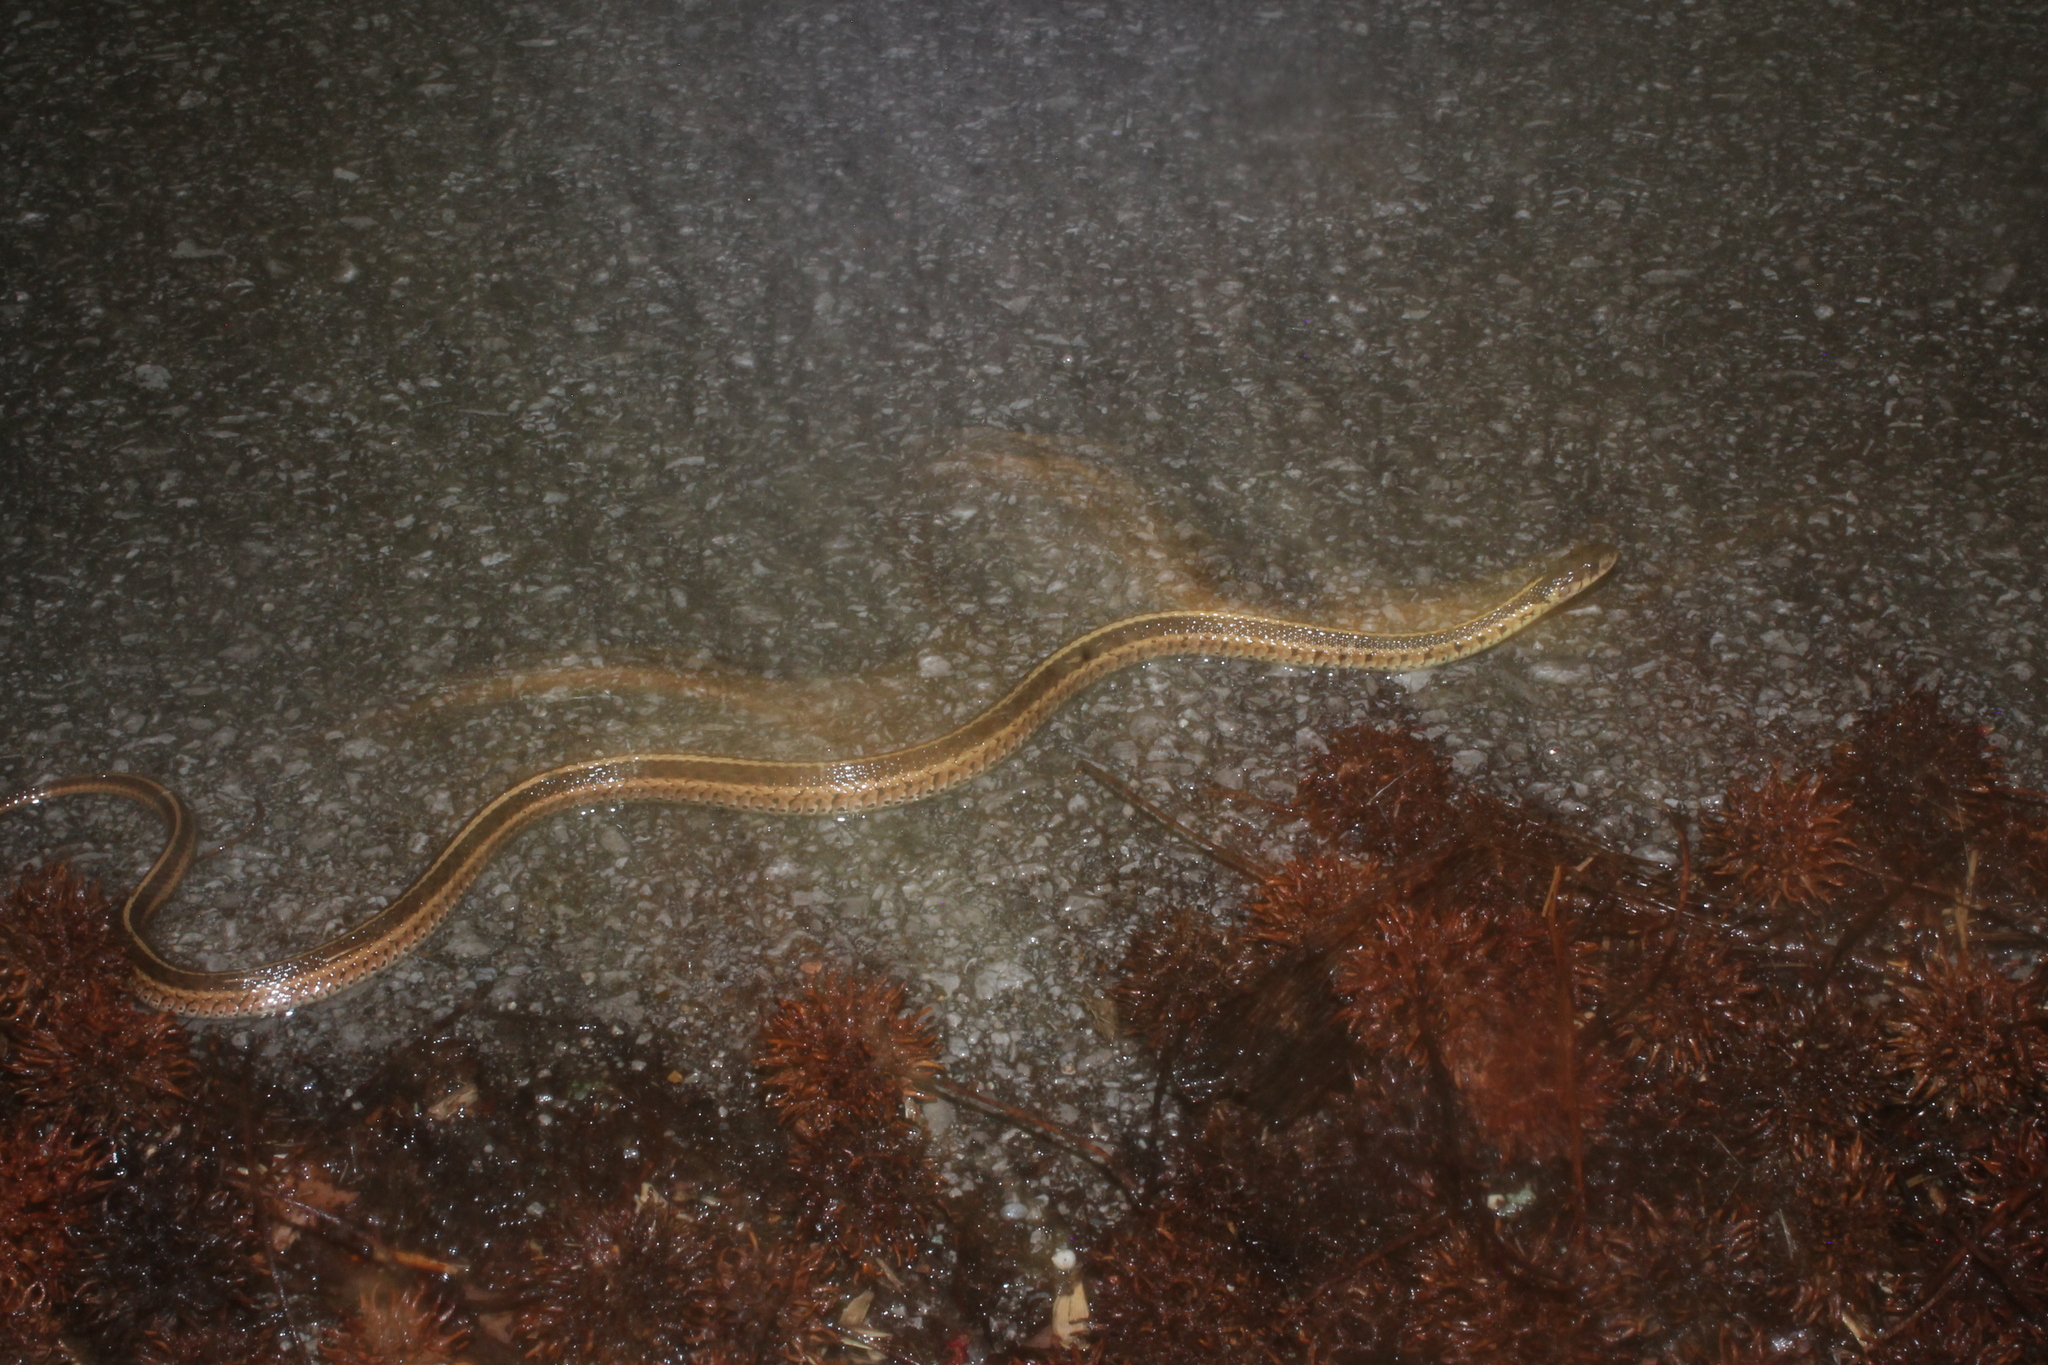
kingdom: Animalia
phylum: Chordata
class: Squamata
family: Colubridae
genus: Thamnophis
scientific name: Thamnophis sirtalis
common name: Common garter snake
